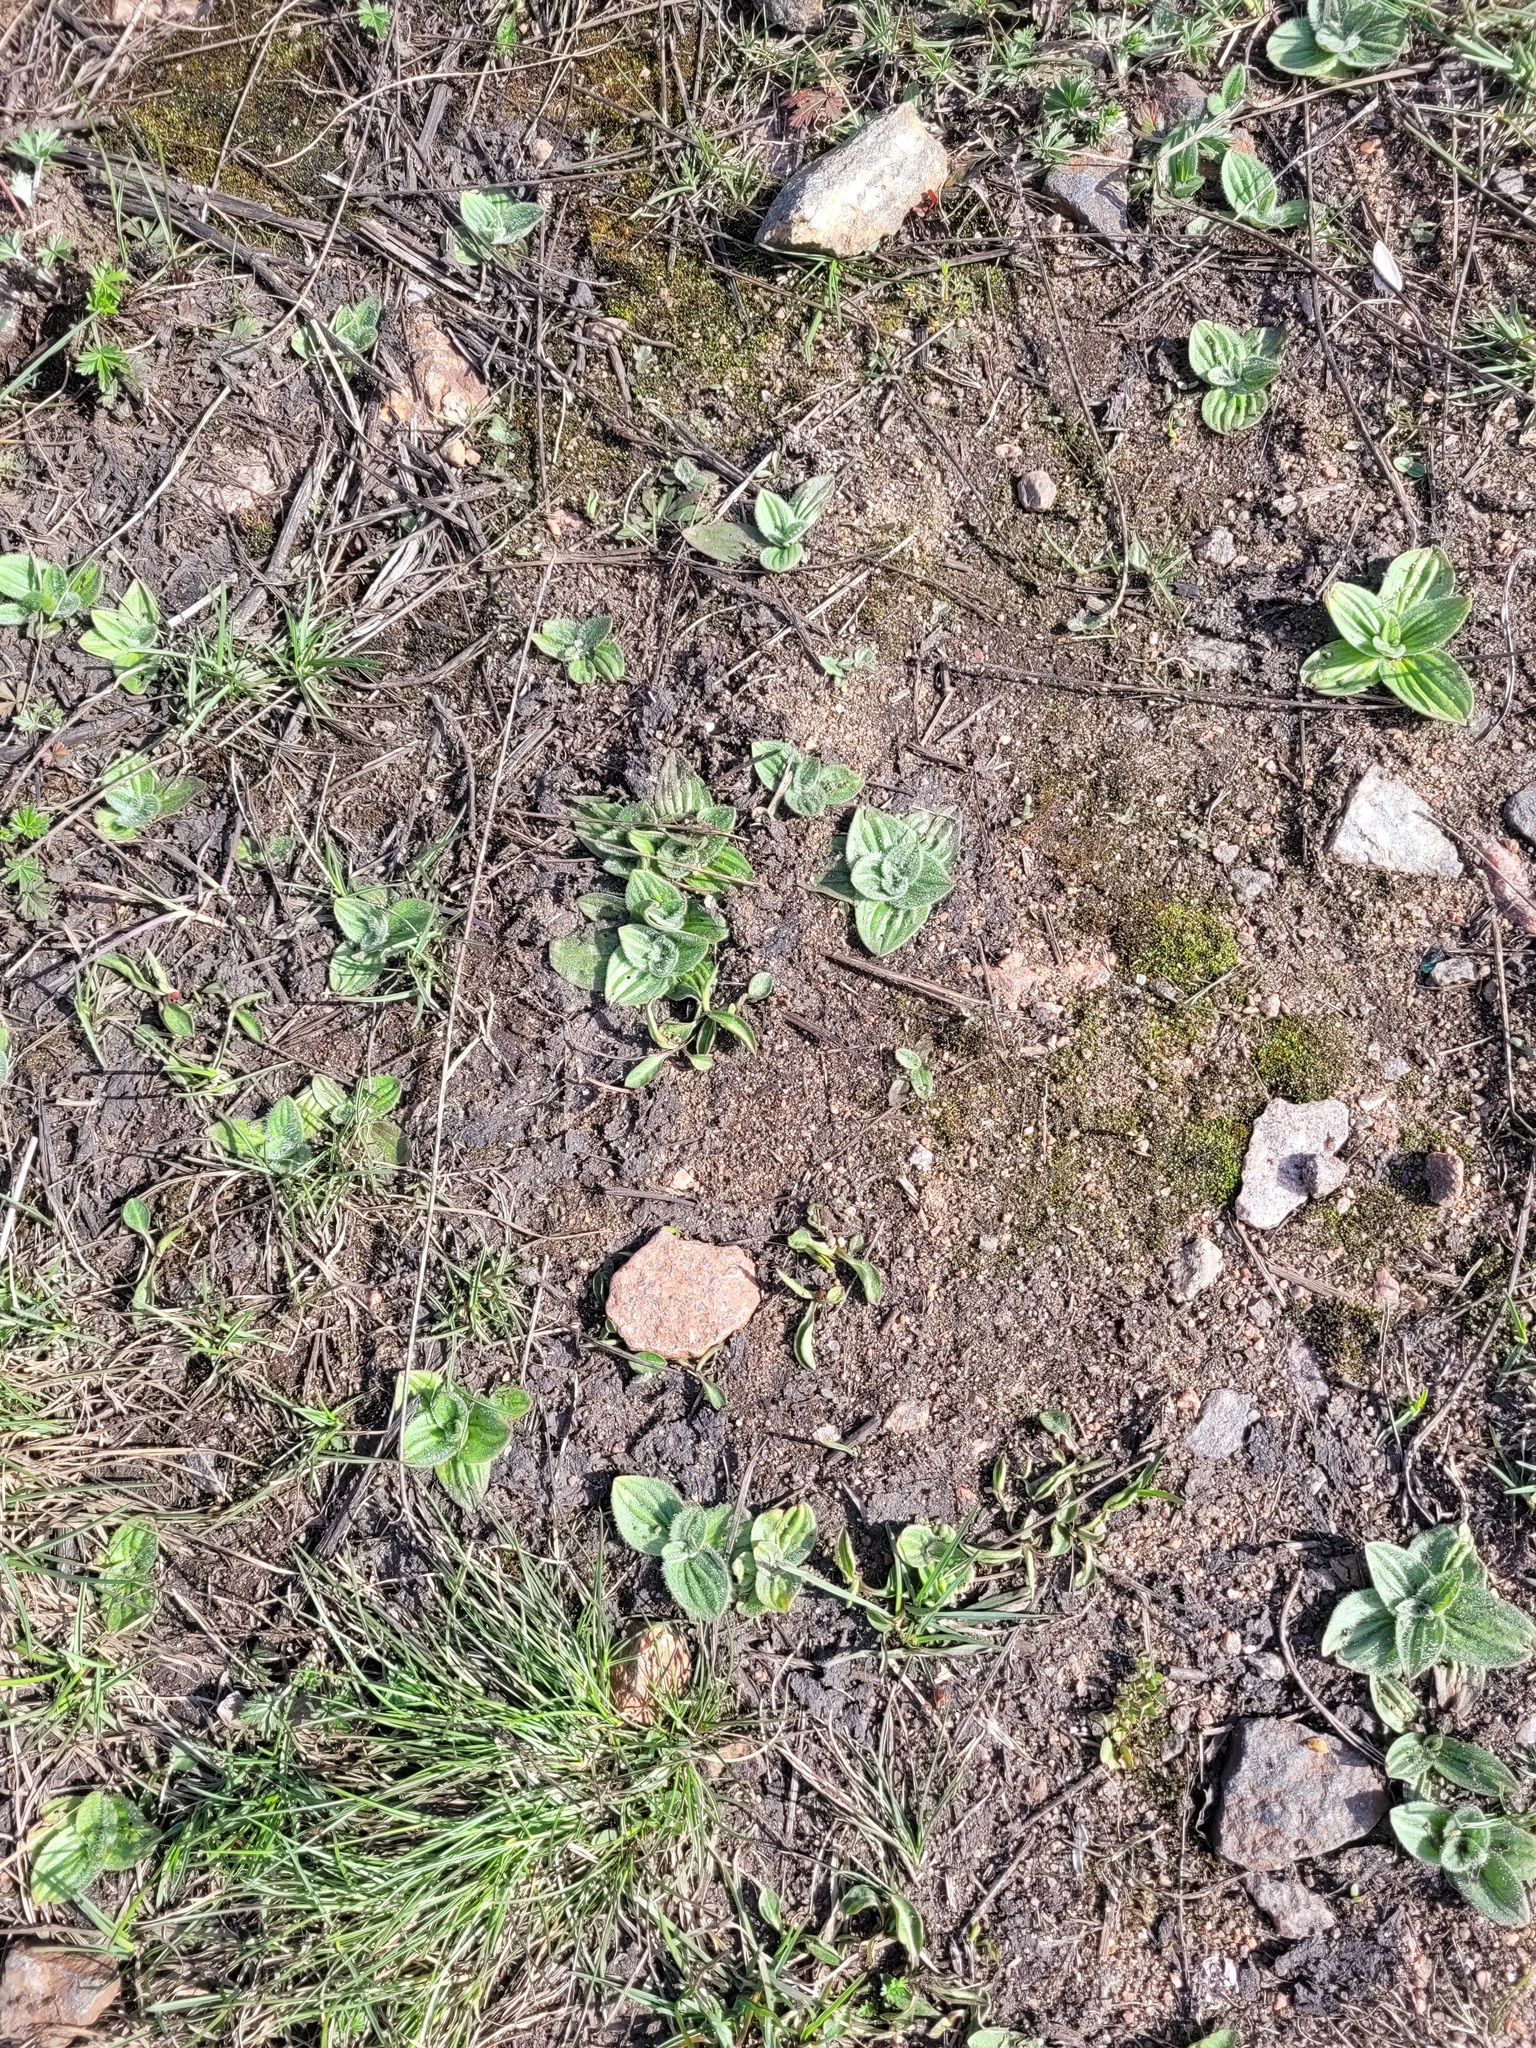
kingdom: Plantae
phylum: Tracheophyta
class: Magnoliopsida
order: Lamiales
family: Plantaginaceae
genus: Plantago
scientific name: Plantago media
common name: Hoary plantain
